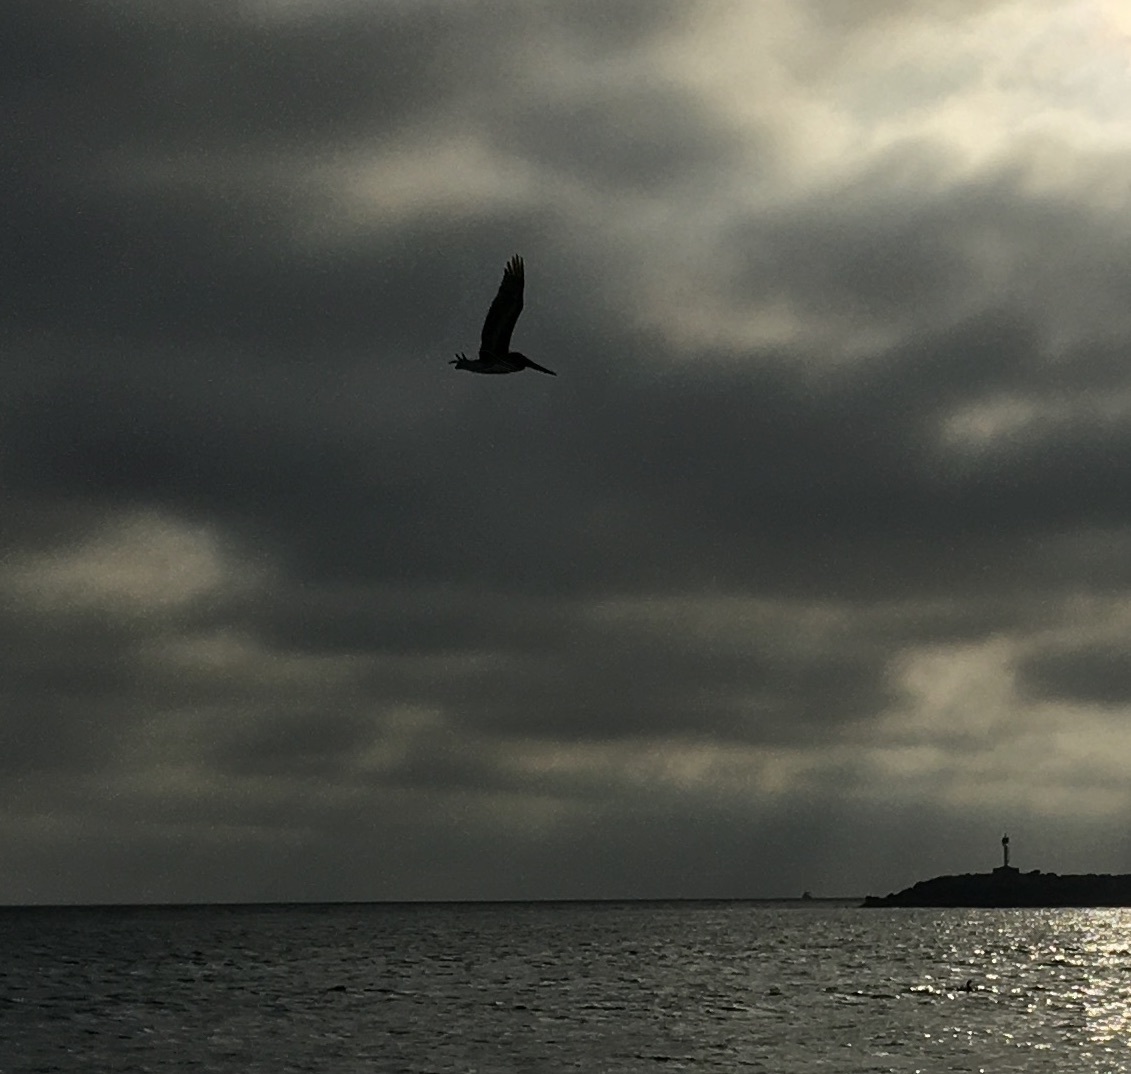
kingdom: Animalia
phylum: Chordata
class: Aves
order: Pelecaniformes
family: Pelecanidae
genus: Pelecanus
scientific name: Pelecanus occidentalis
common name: Brown pelican
